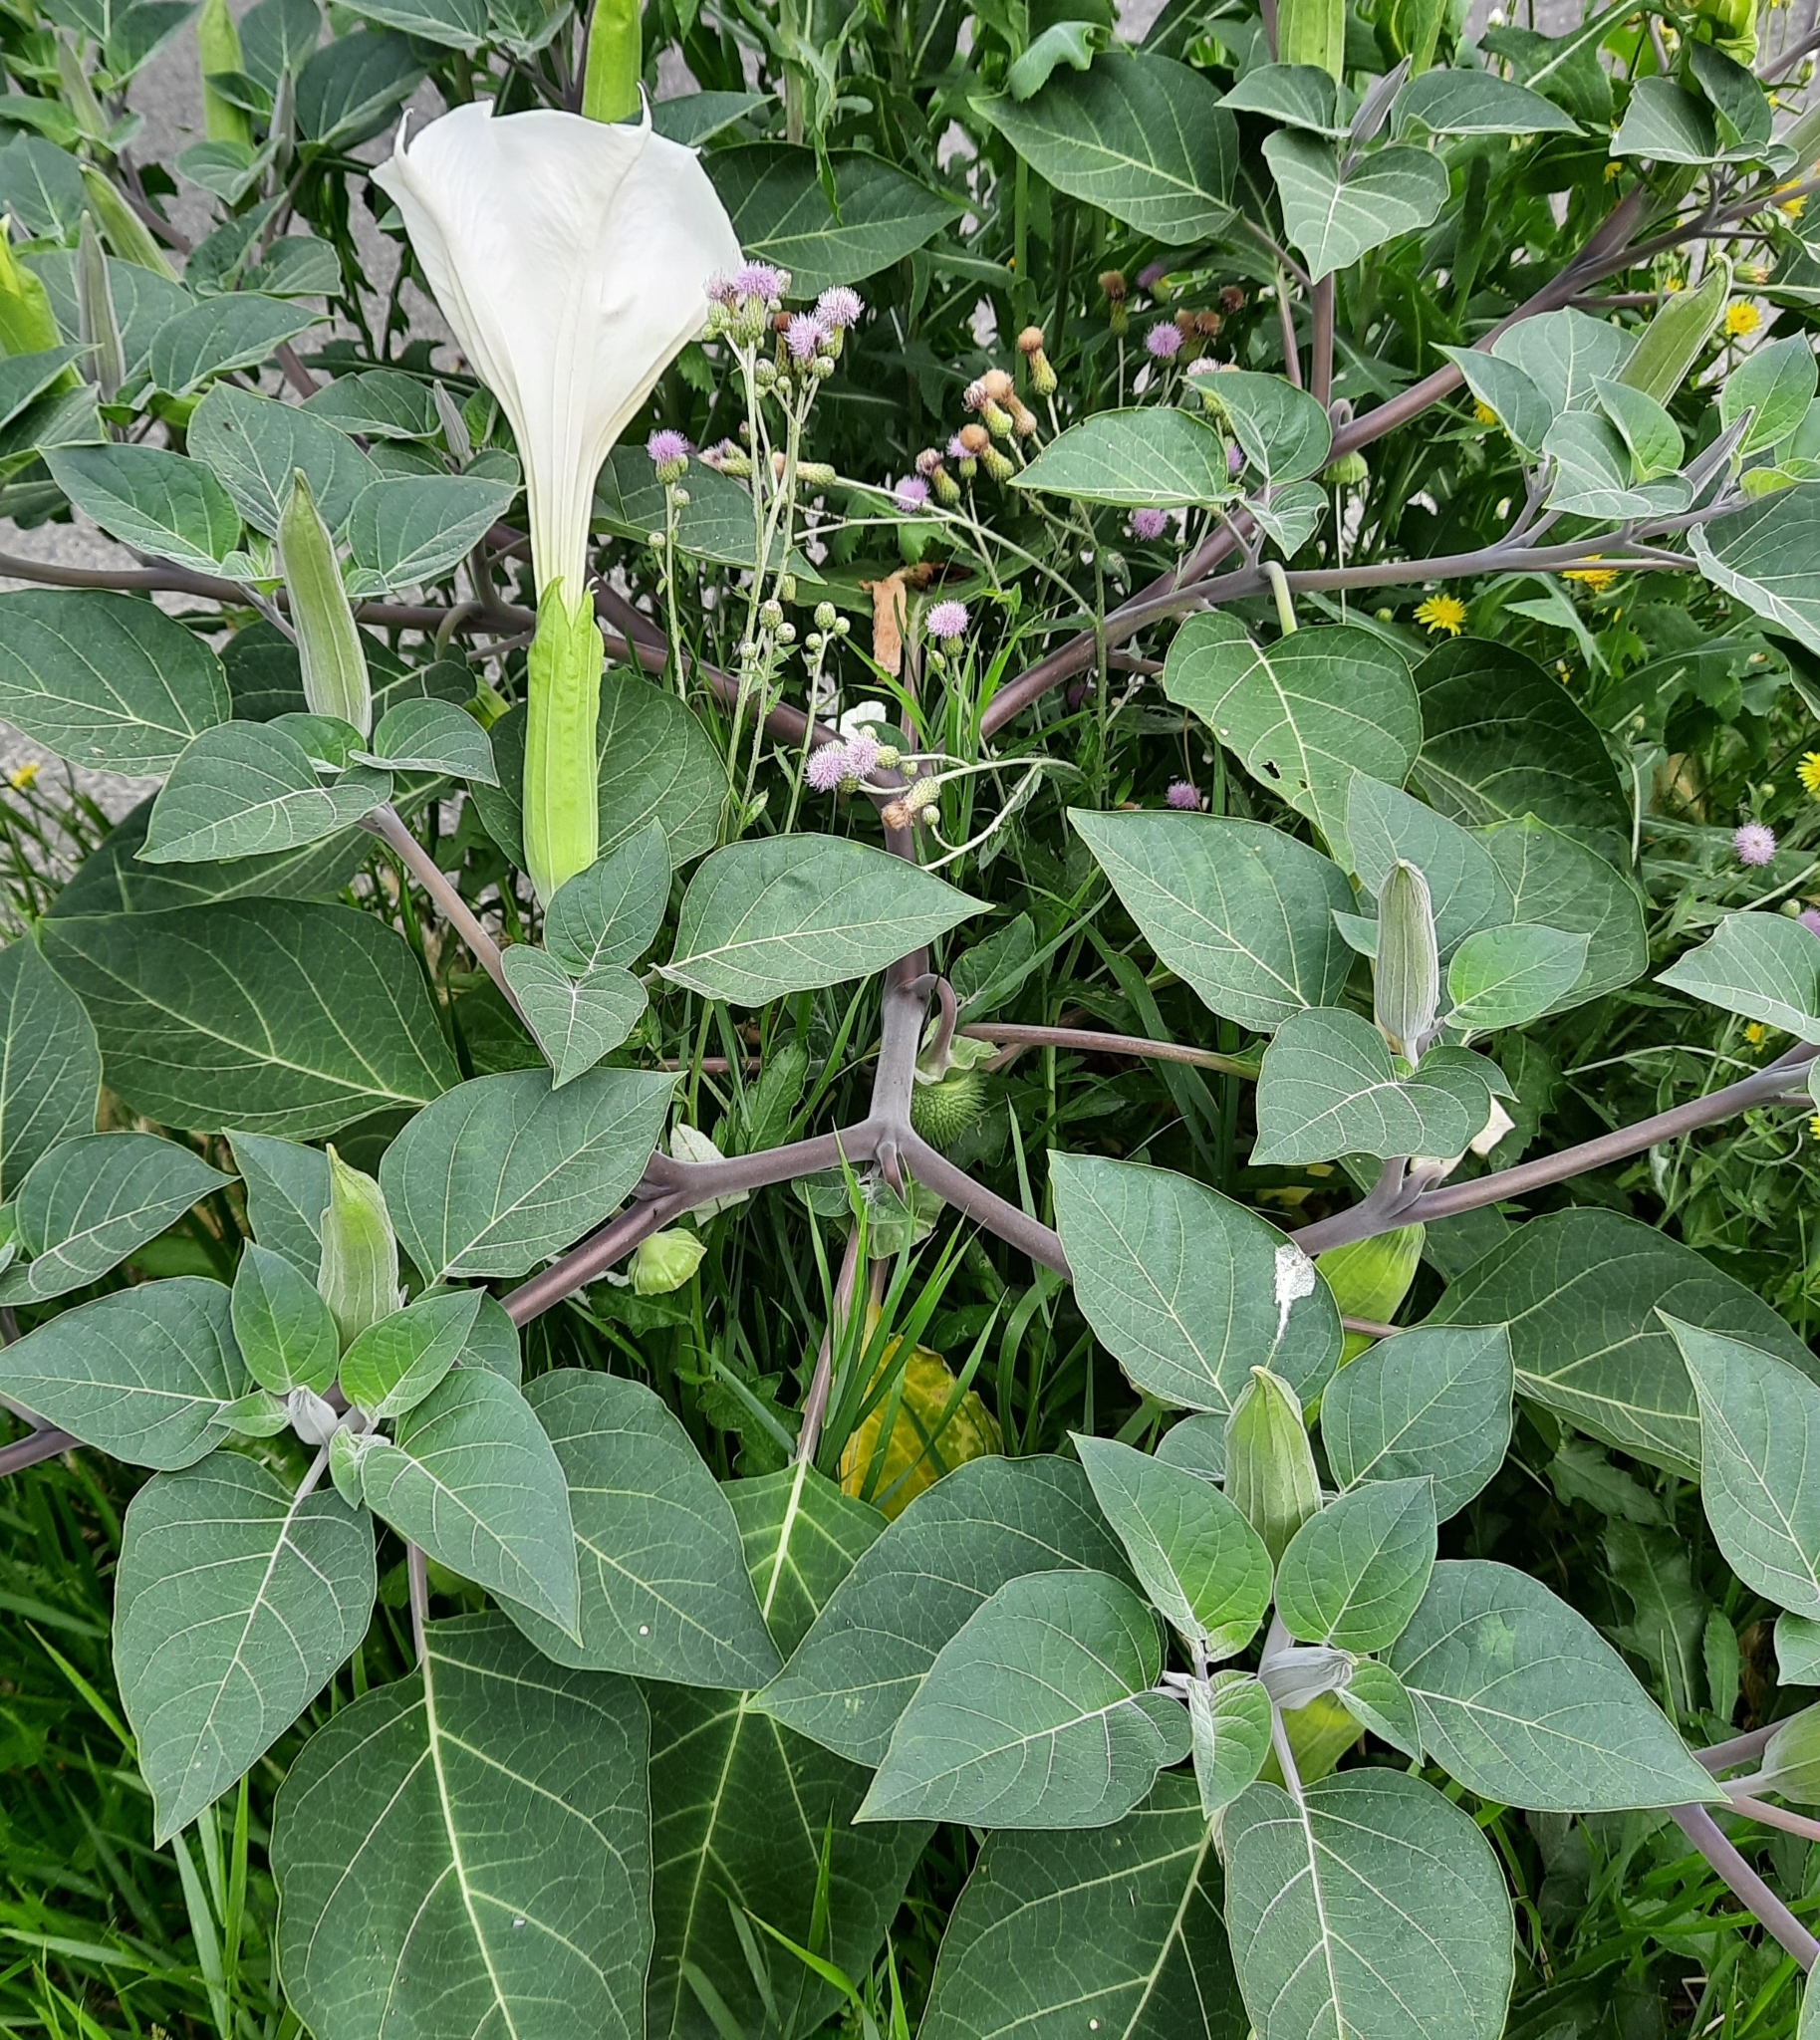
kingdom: Plantae
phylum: Tracheophyta
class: Magnoliopsida
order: Solanales
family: Solanaceae
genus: Datura
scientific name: Datura innoxia
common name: Downy thorn-apple
